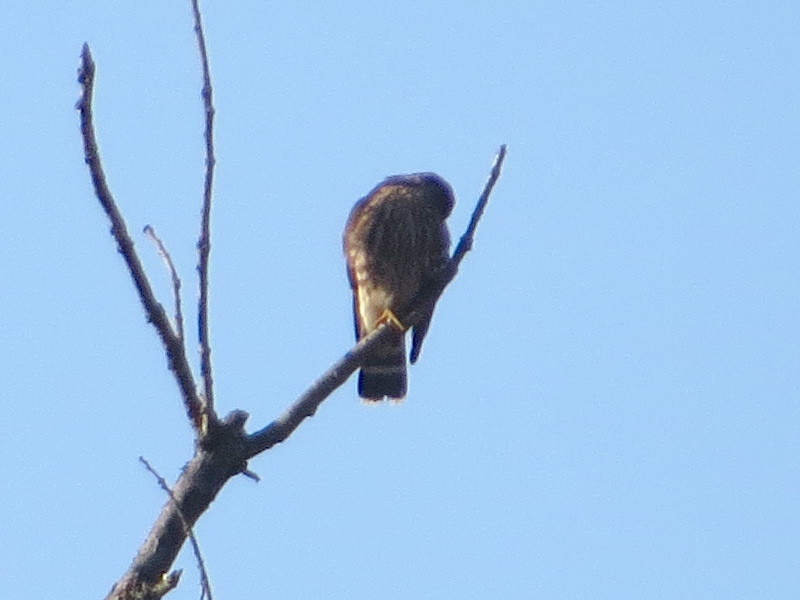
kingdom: Animalia
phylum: Chordata
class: Aves
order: Falconiformes
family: Falconidae
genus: Falco
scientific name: Falco columbarius
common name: Merlin
